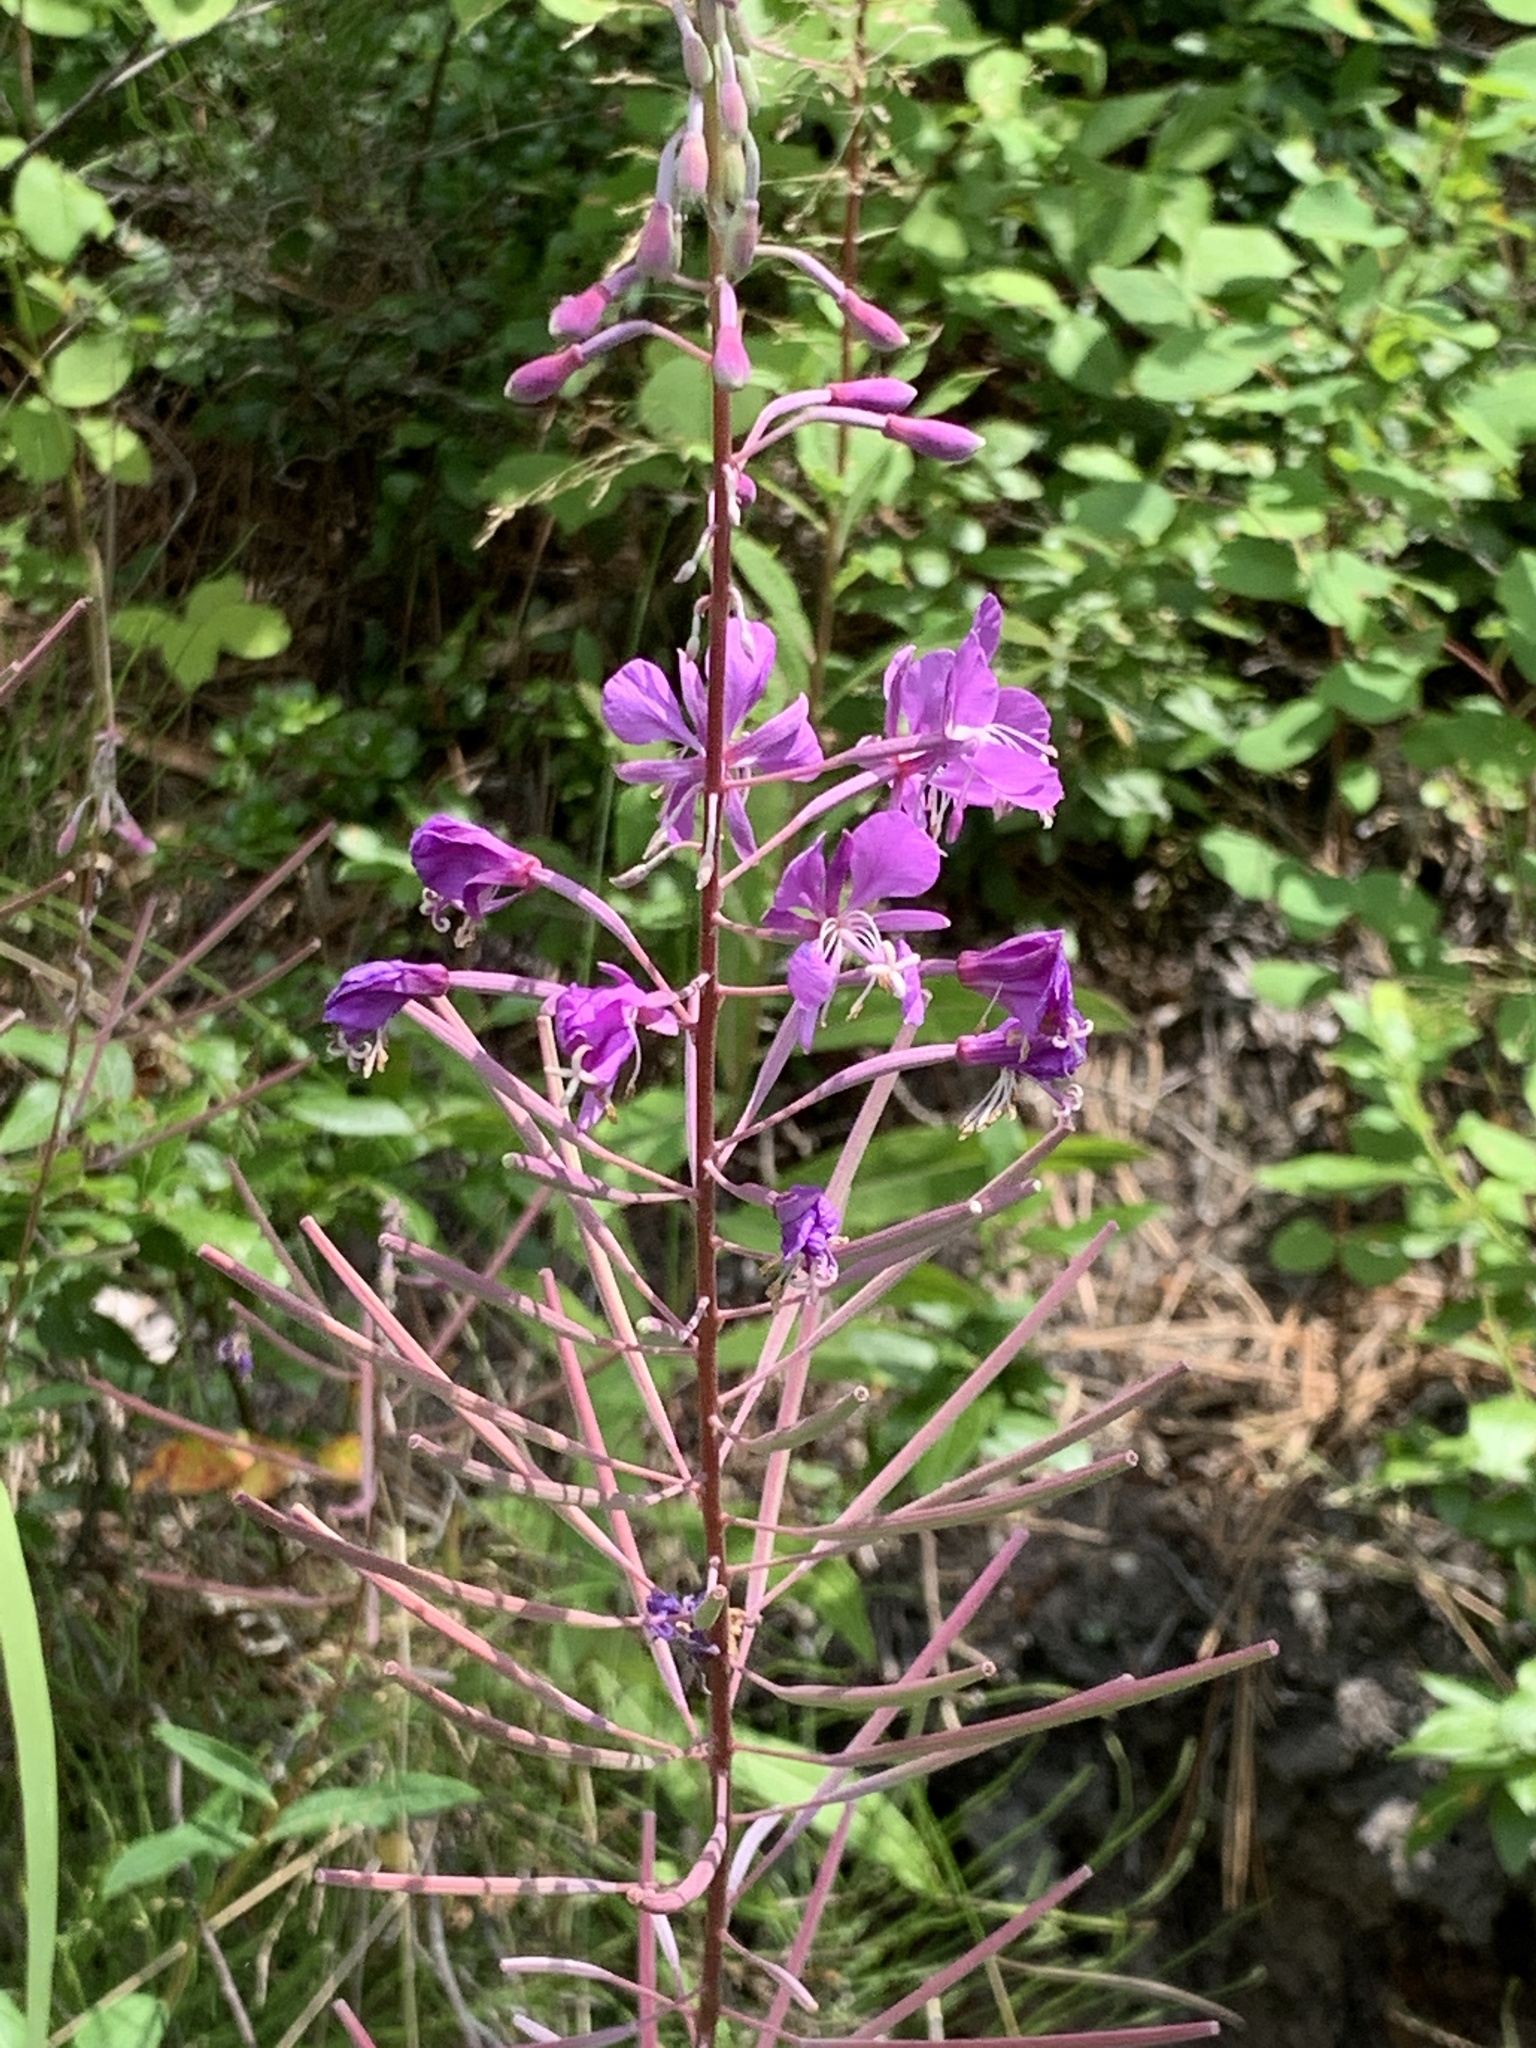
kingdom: Plantae
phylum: Tracheophyta
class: Magnoliopsida
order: Myrtales
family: Onagraceae
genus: Chamaenerion
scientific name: Chamaenerion angustifolium
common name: Fireweed
